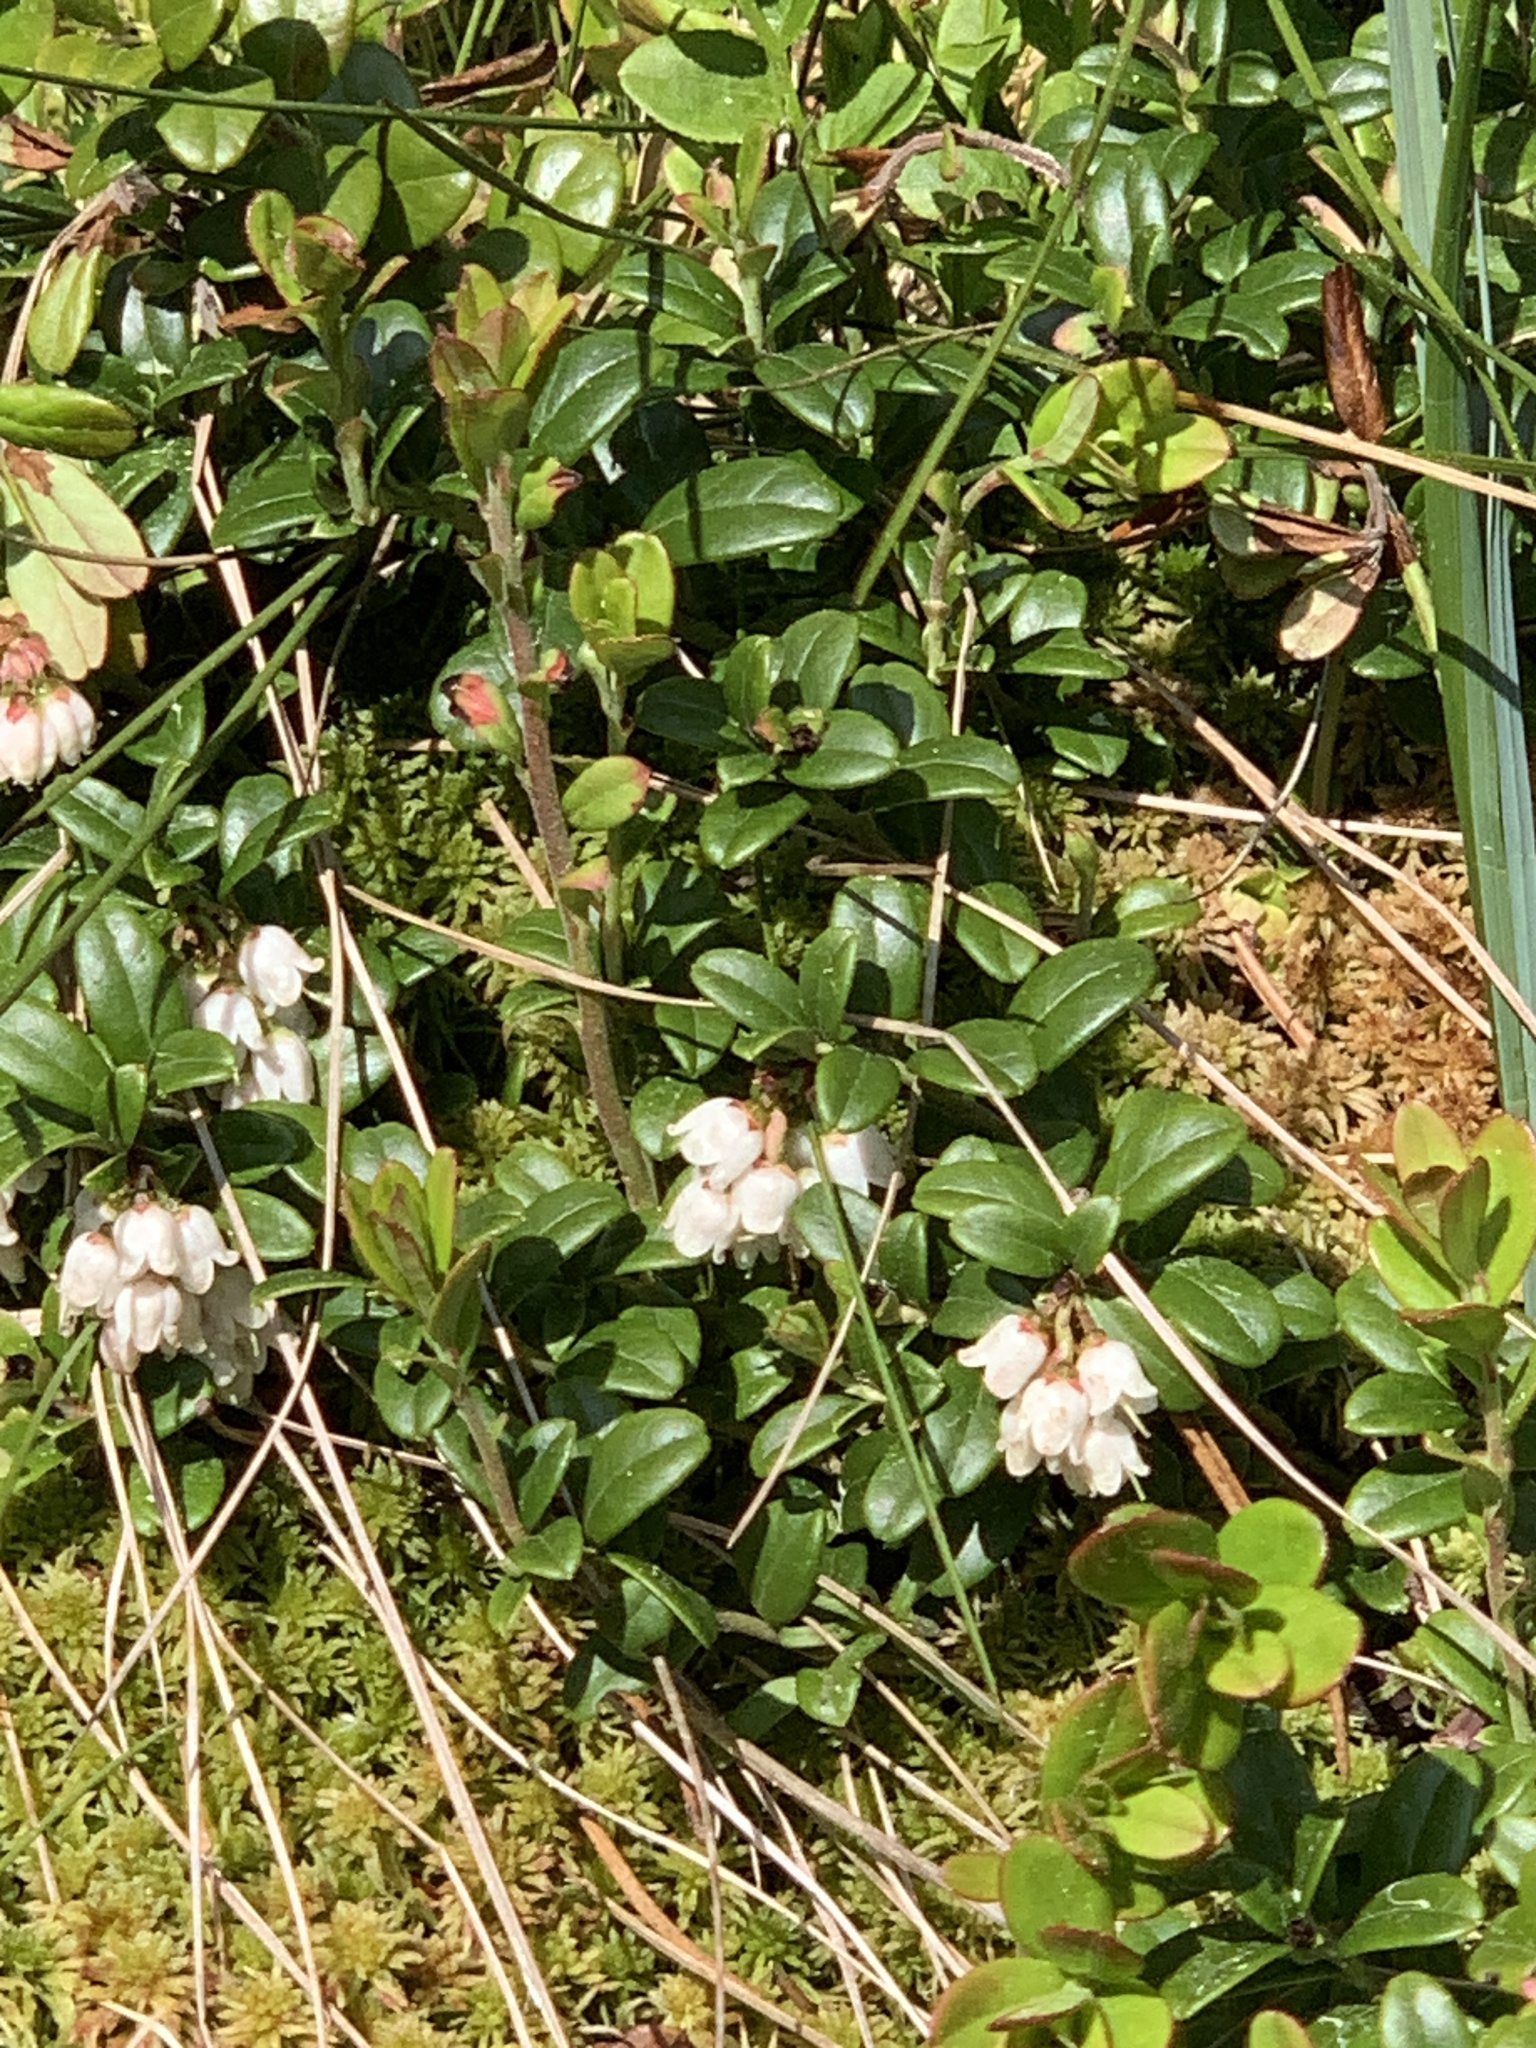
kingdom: Plantae
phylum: Tracheophyta
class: Magnoliopsida
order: Ericales
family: Ericaceae
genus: Vaccinium
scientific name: Vaccinium vitis-idaea
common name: Cowberry
